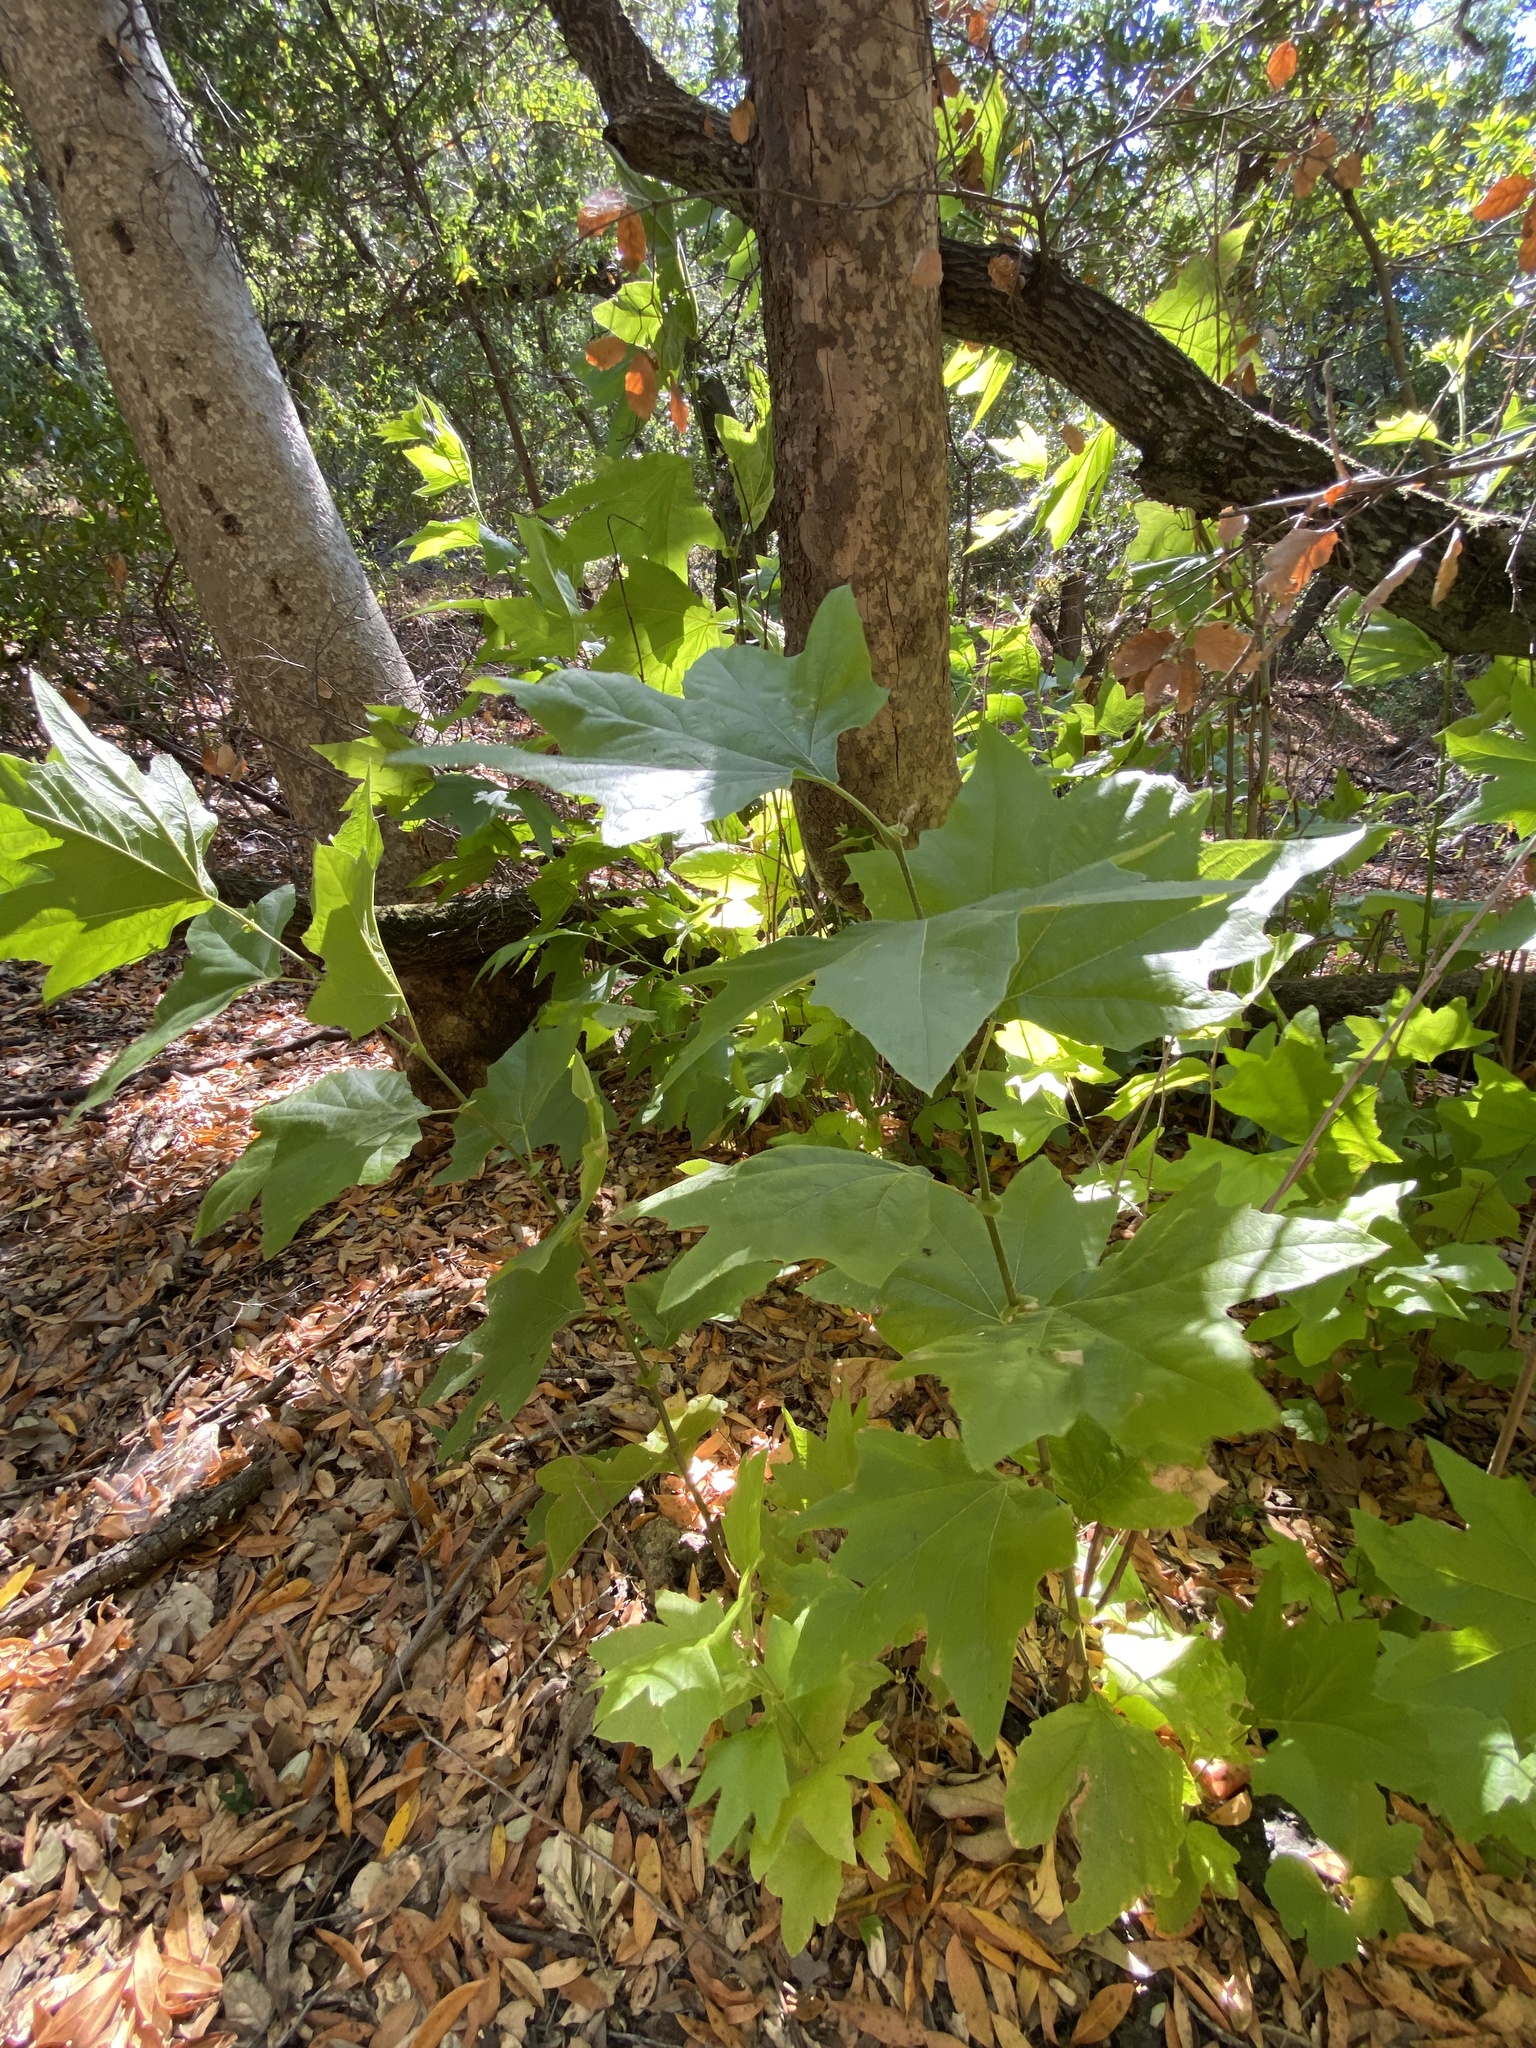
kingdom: Plantae
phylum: Tracheophyta
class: Magnoliopsida
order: Proteales
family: Platanaceae
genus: Platanus
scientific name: Platanus racemosa
